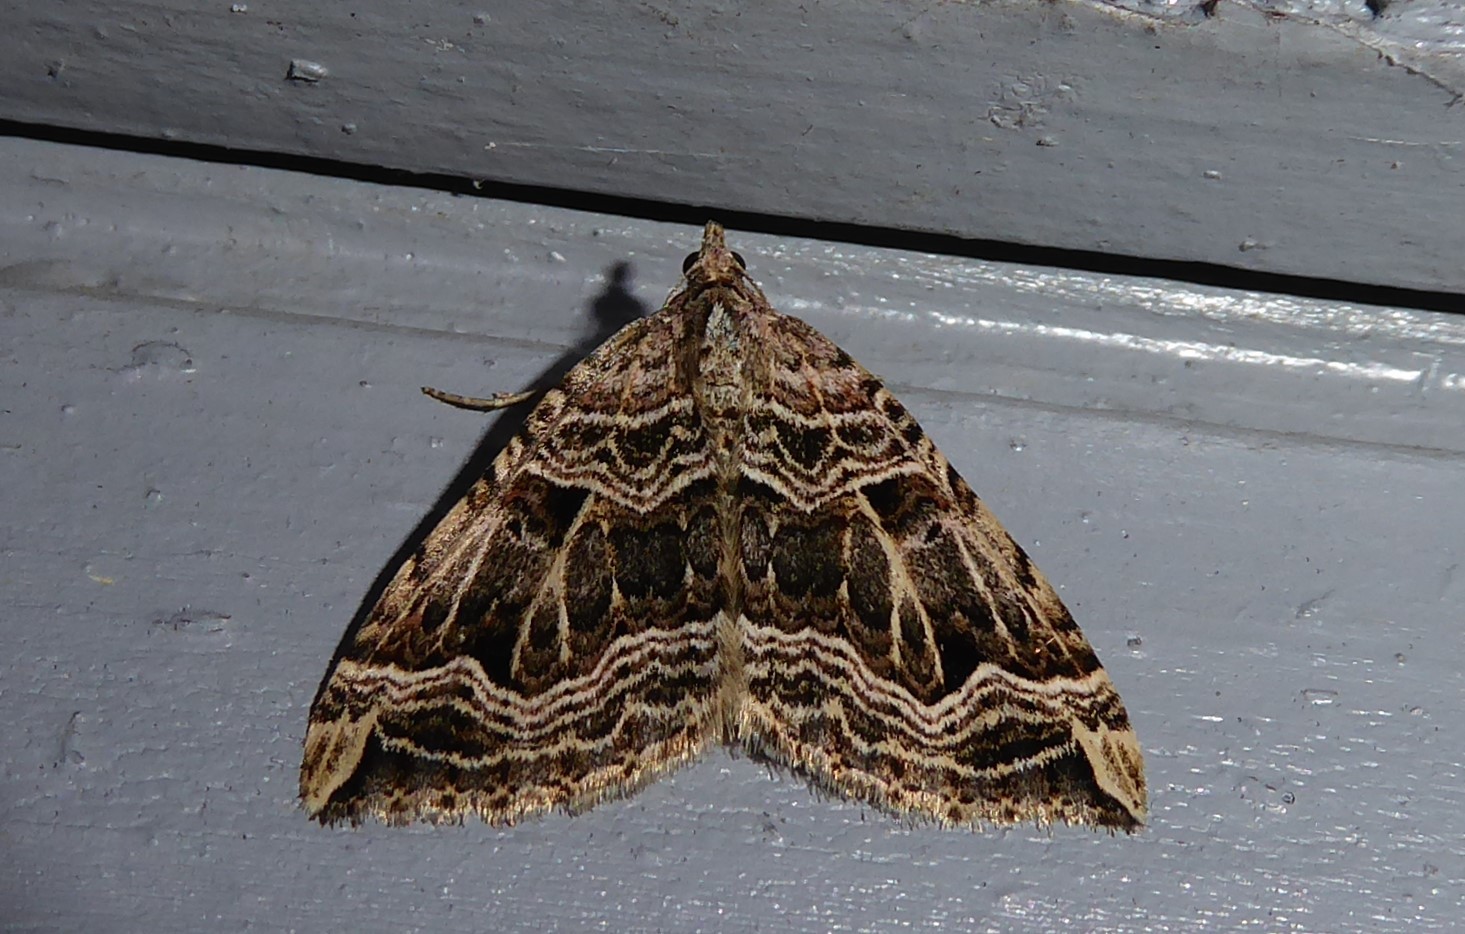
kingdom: Animalia
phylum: Arthropoda
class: Insecta
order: Lepidoptera
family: Geometridae
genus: Xanthorhoe
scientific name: Xanthorhoe semifissata
